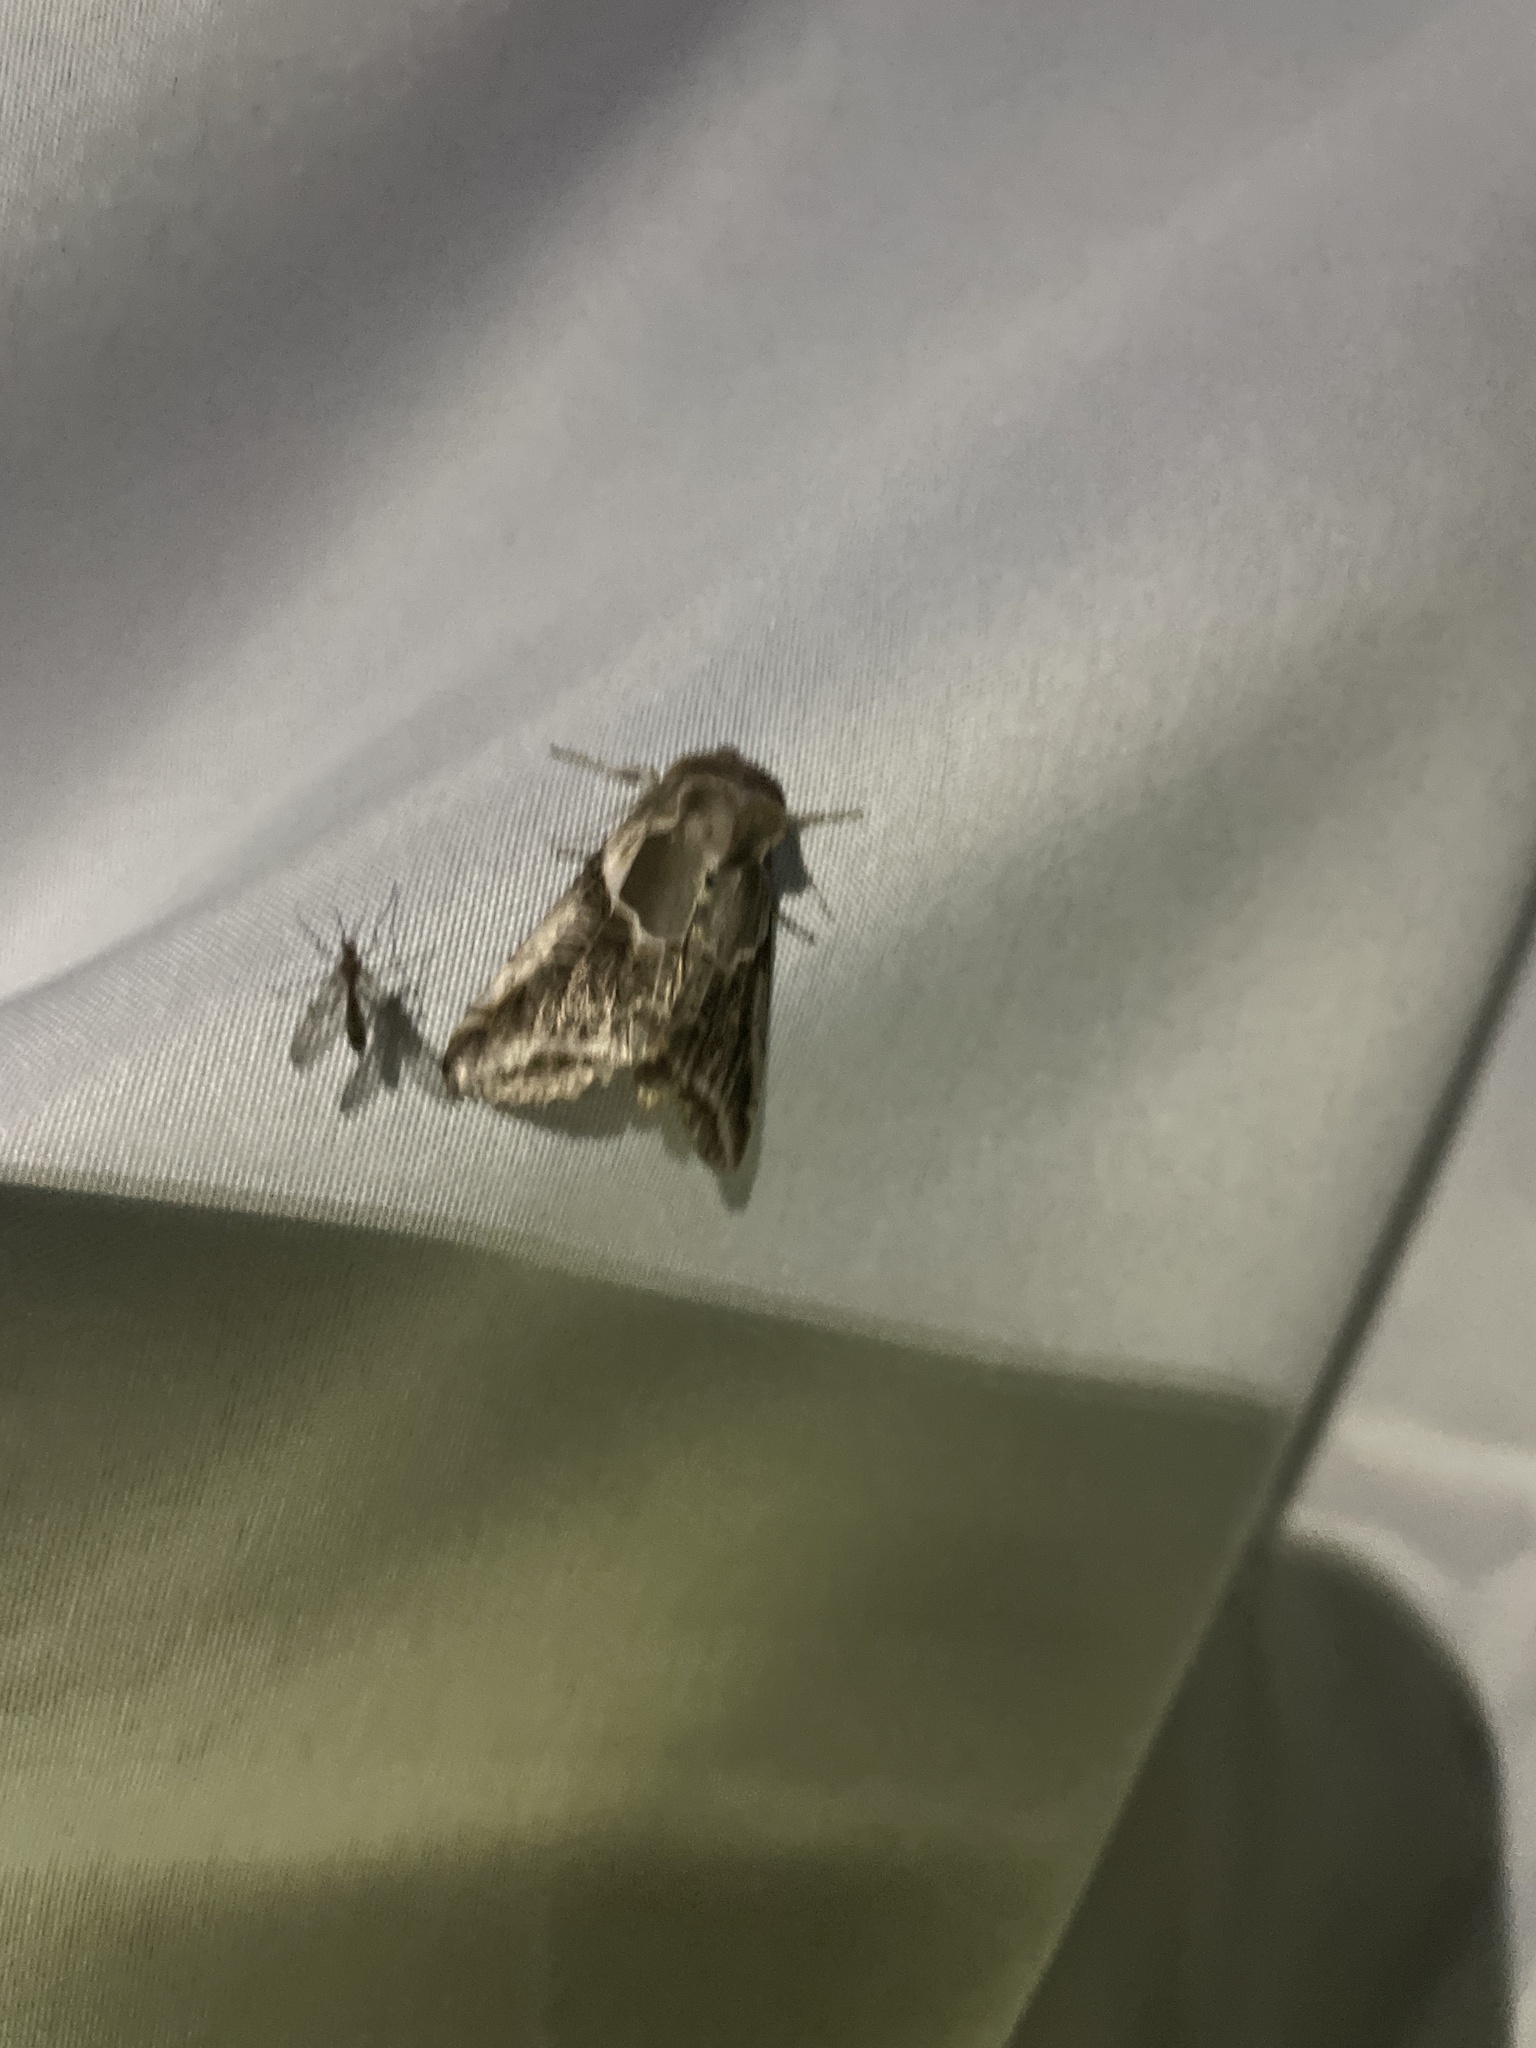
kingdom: Animalia
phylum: Arthropoda
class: Insecta
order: Lepidoptera
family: Drepanidae
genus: Habrosyne
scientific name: Habrosyne scripta
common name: Lettered habrosyne moth
